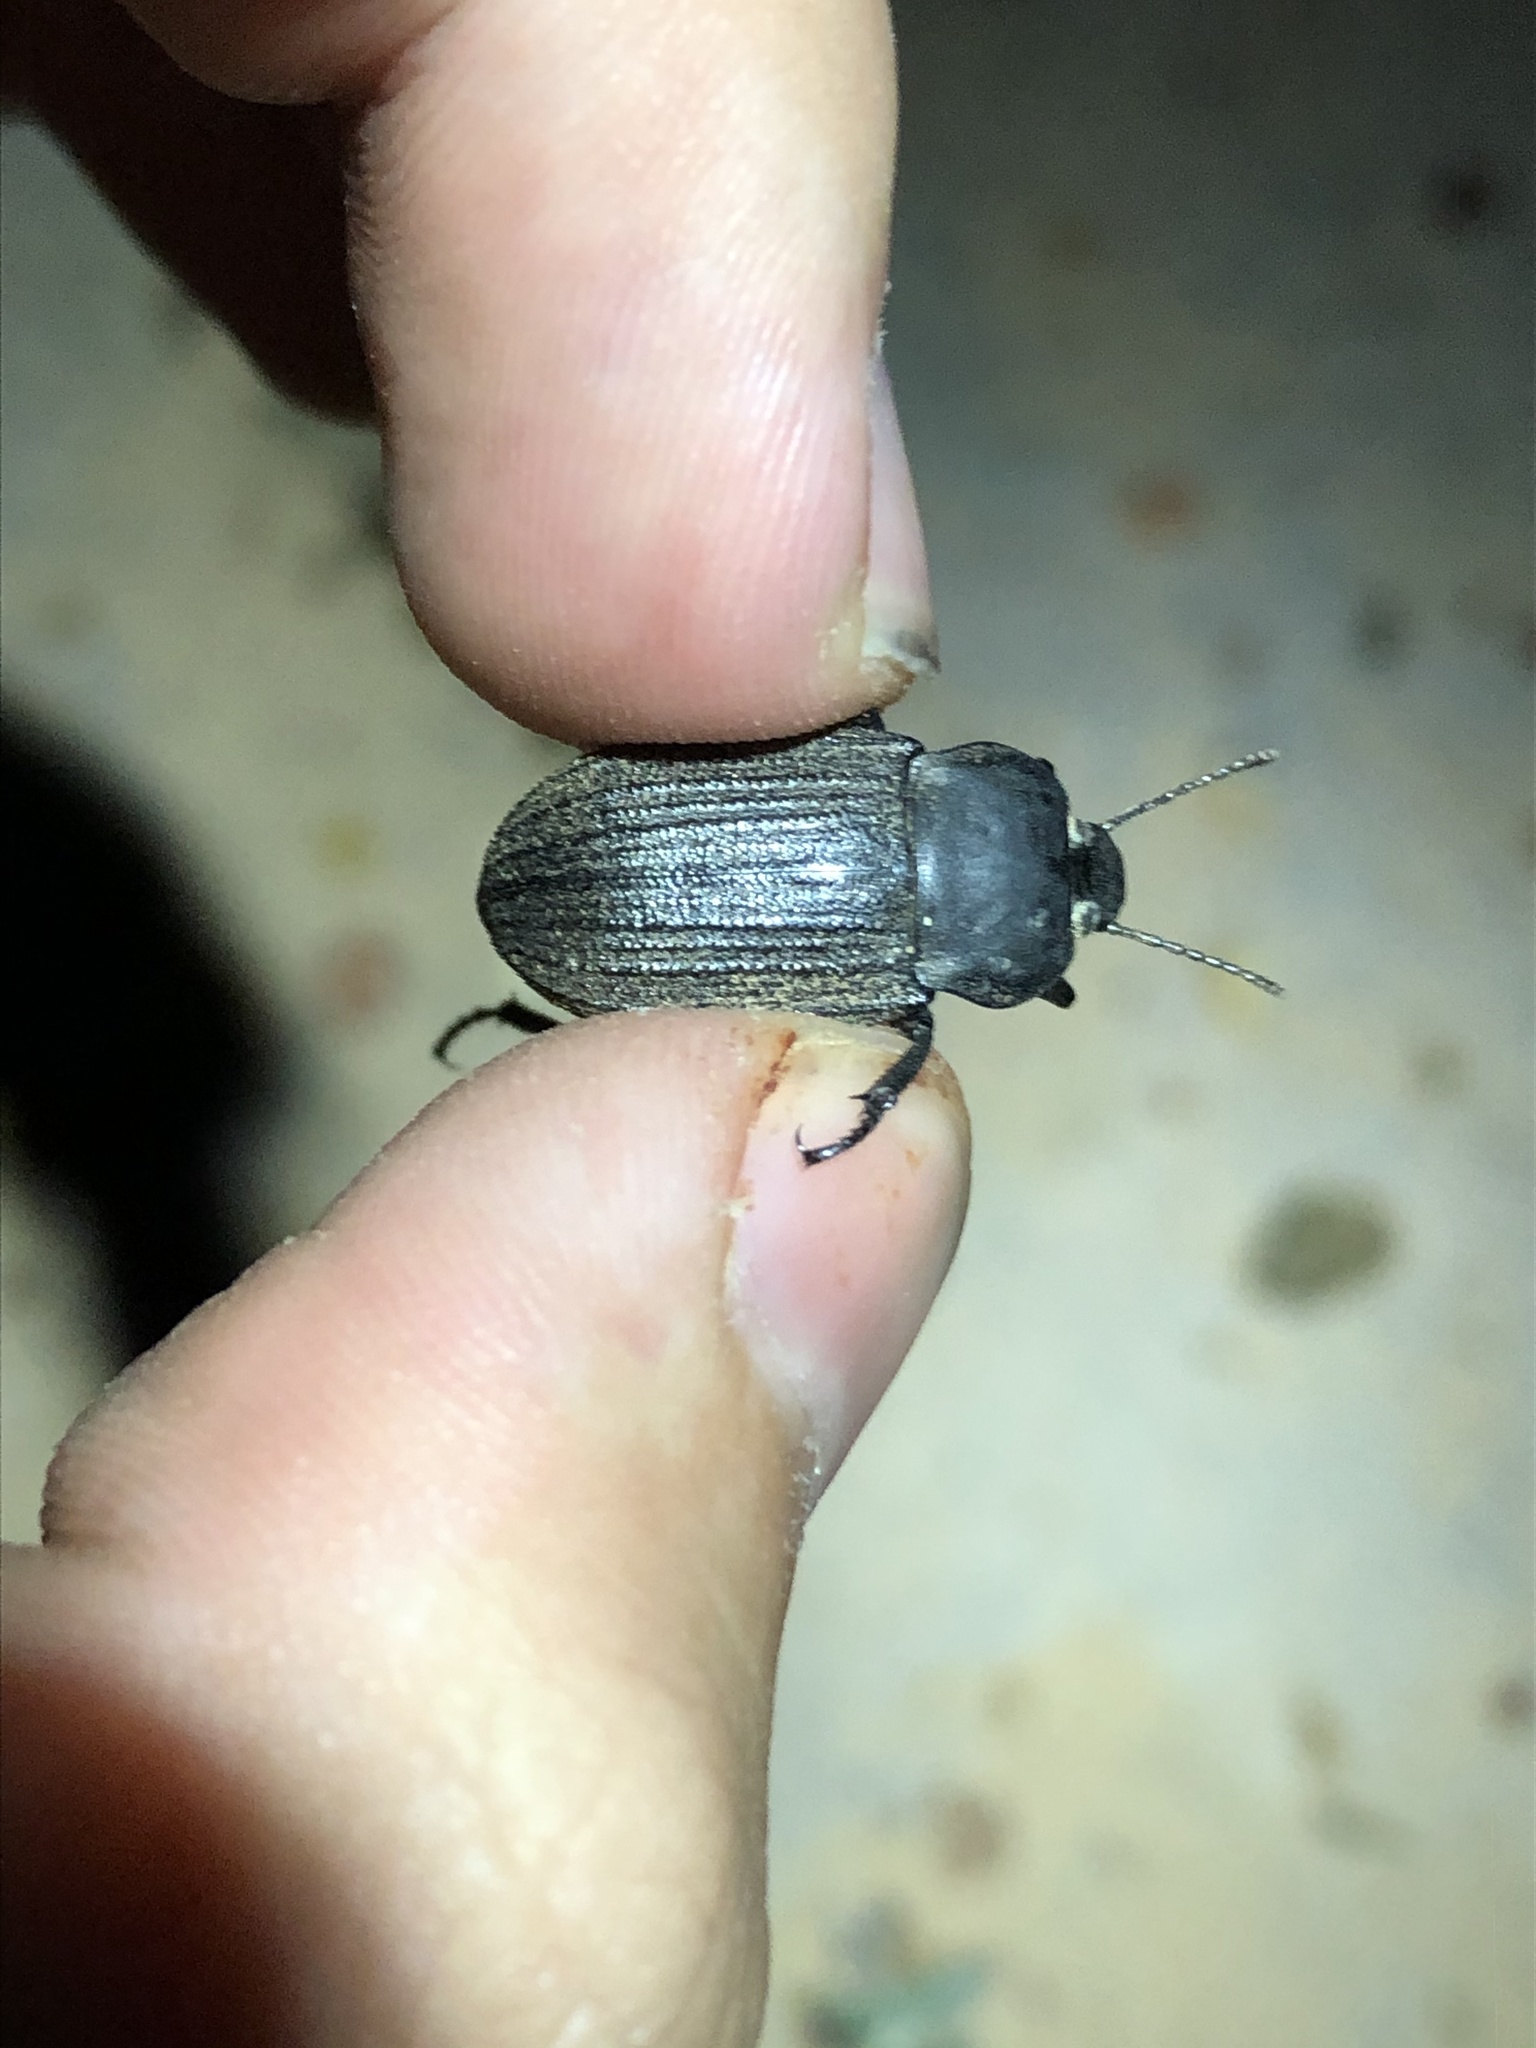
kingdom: Animalia
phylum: Arthropoda
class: Insecta
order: Coleoptera
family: Tenebrionidae
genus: Eleodes
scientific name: Eleodes tricostata
